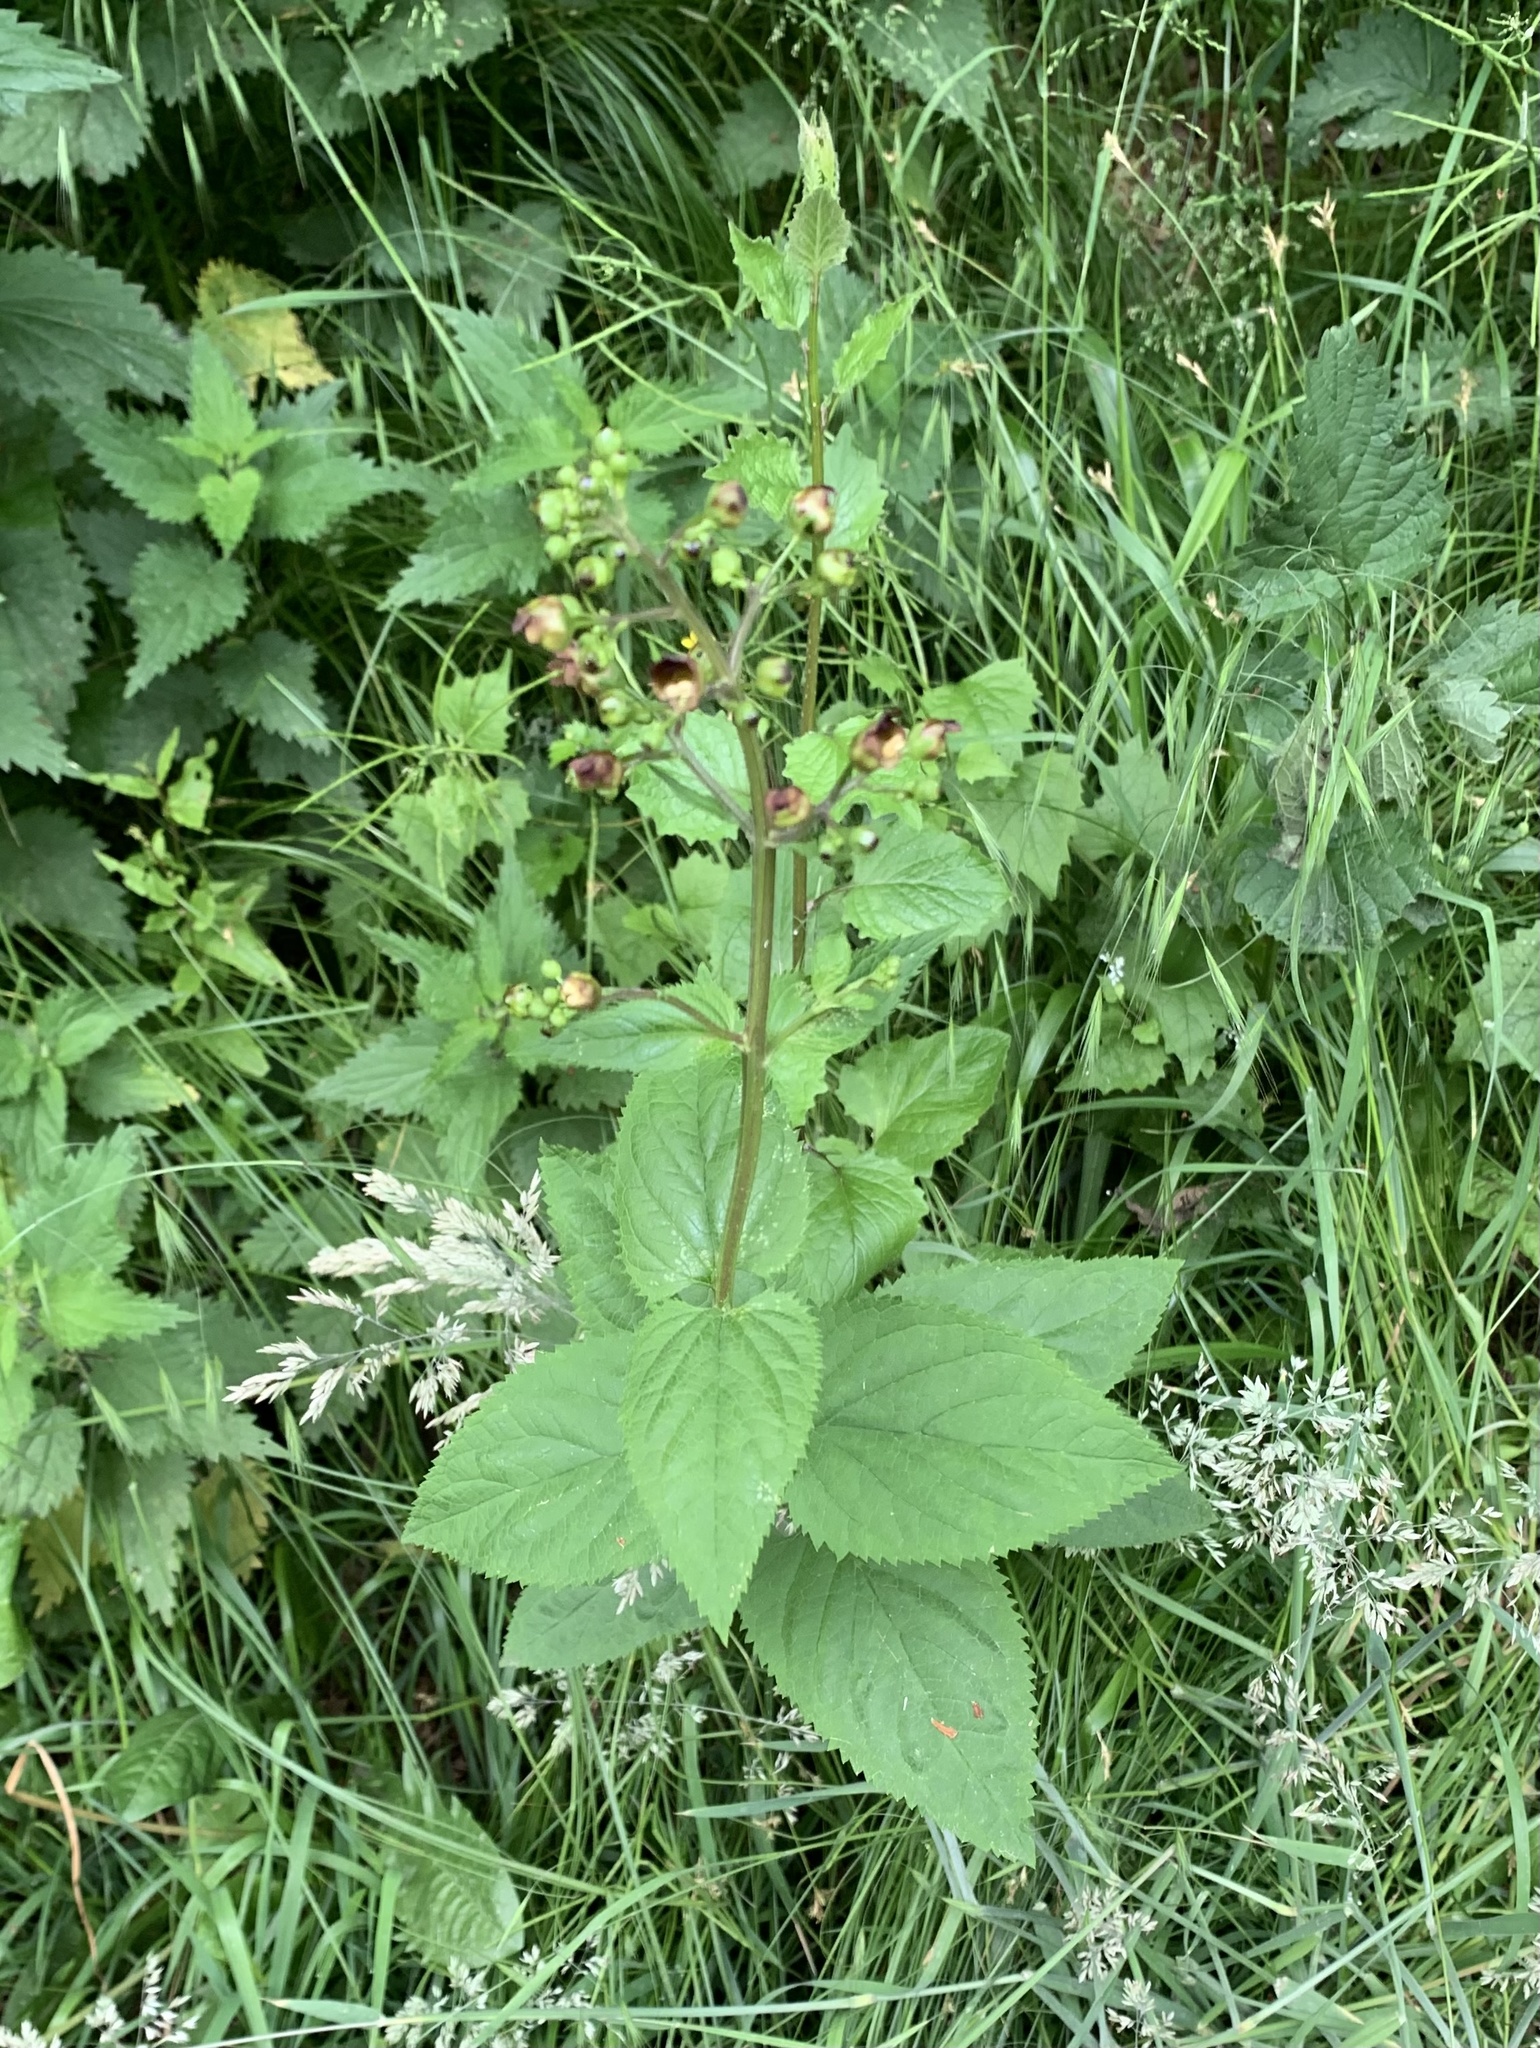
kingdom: Plantae
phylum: Tracheophyta
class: Magnoliopsida
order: Lamiales
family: Scrophulariaceae
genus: Scrophularia
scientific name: Scrophularia nodosa
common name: Common figwort
